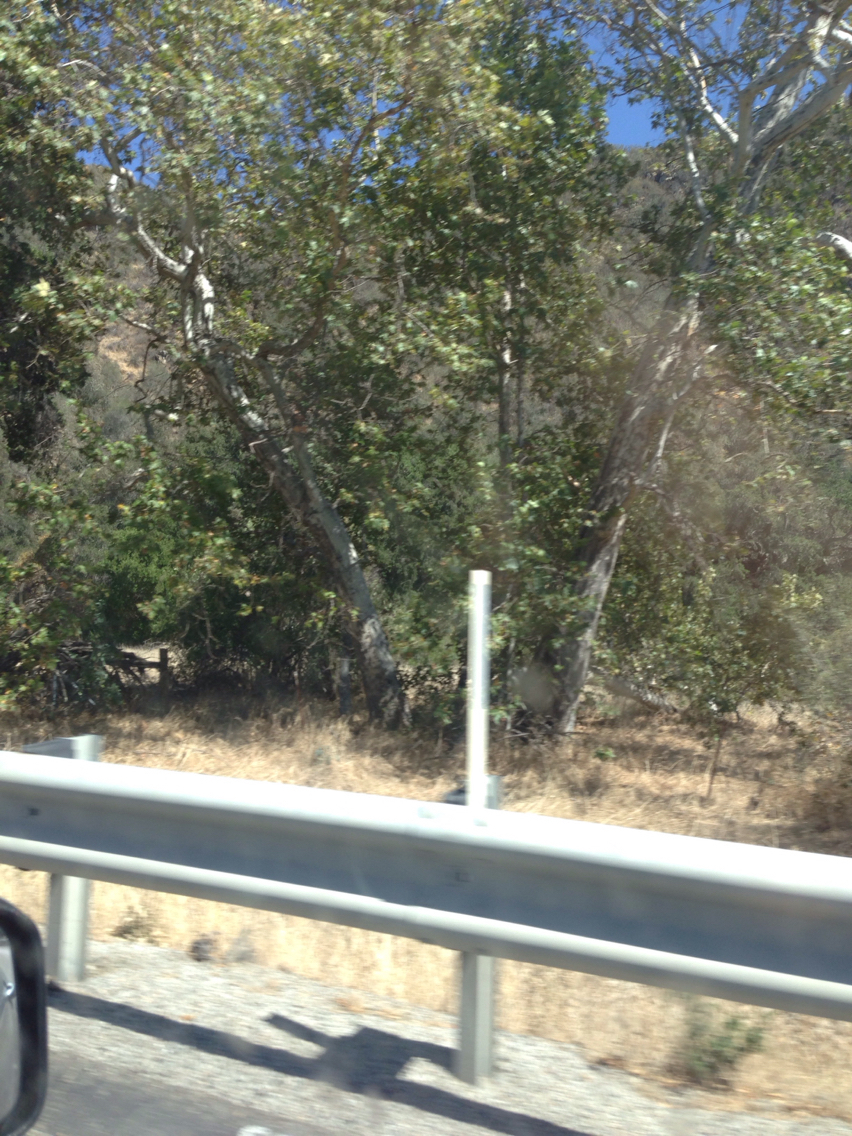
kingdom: Plantae
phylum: Tracheophyta
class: Magnoliopsida
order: Proteales
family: Platanaceae
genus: Platanus
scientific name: Platanus racemosa
